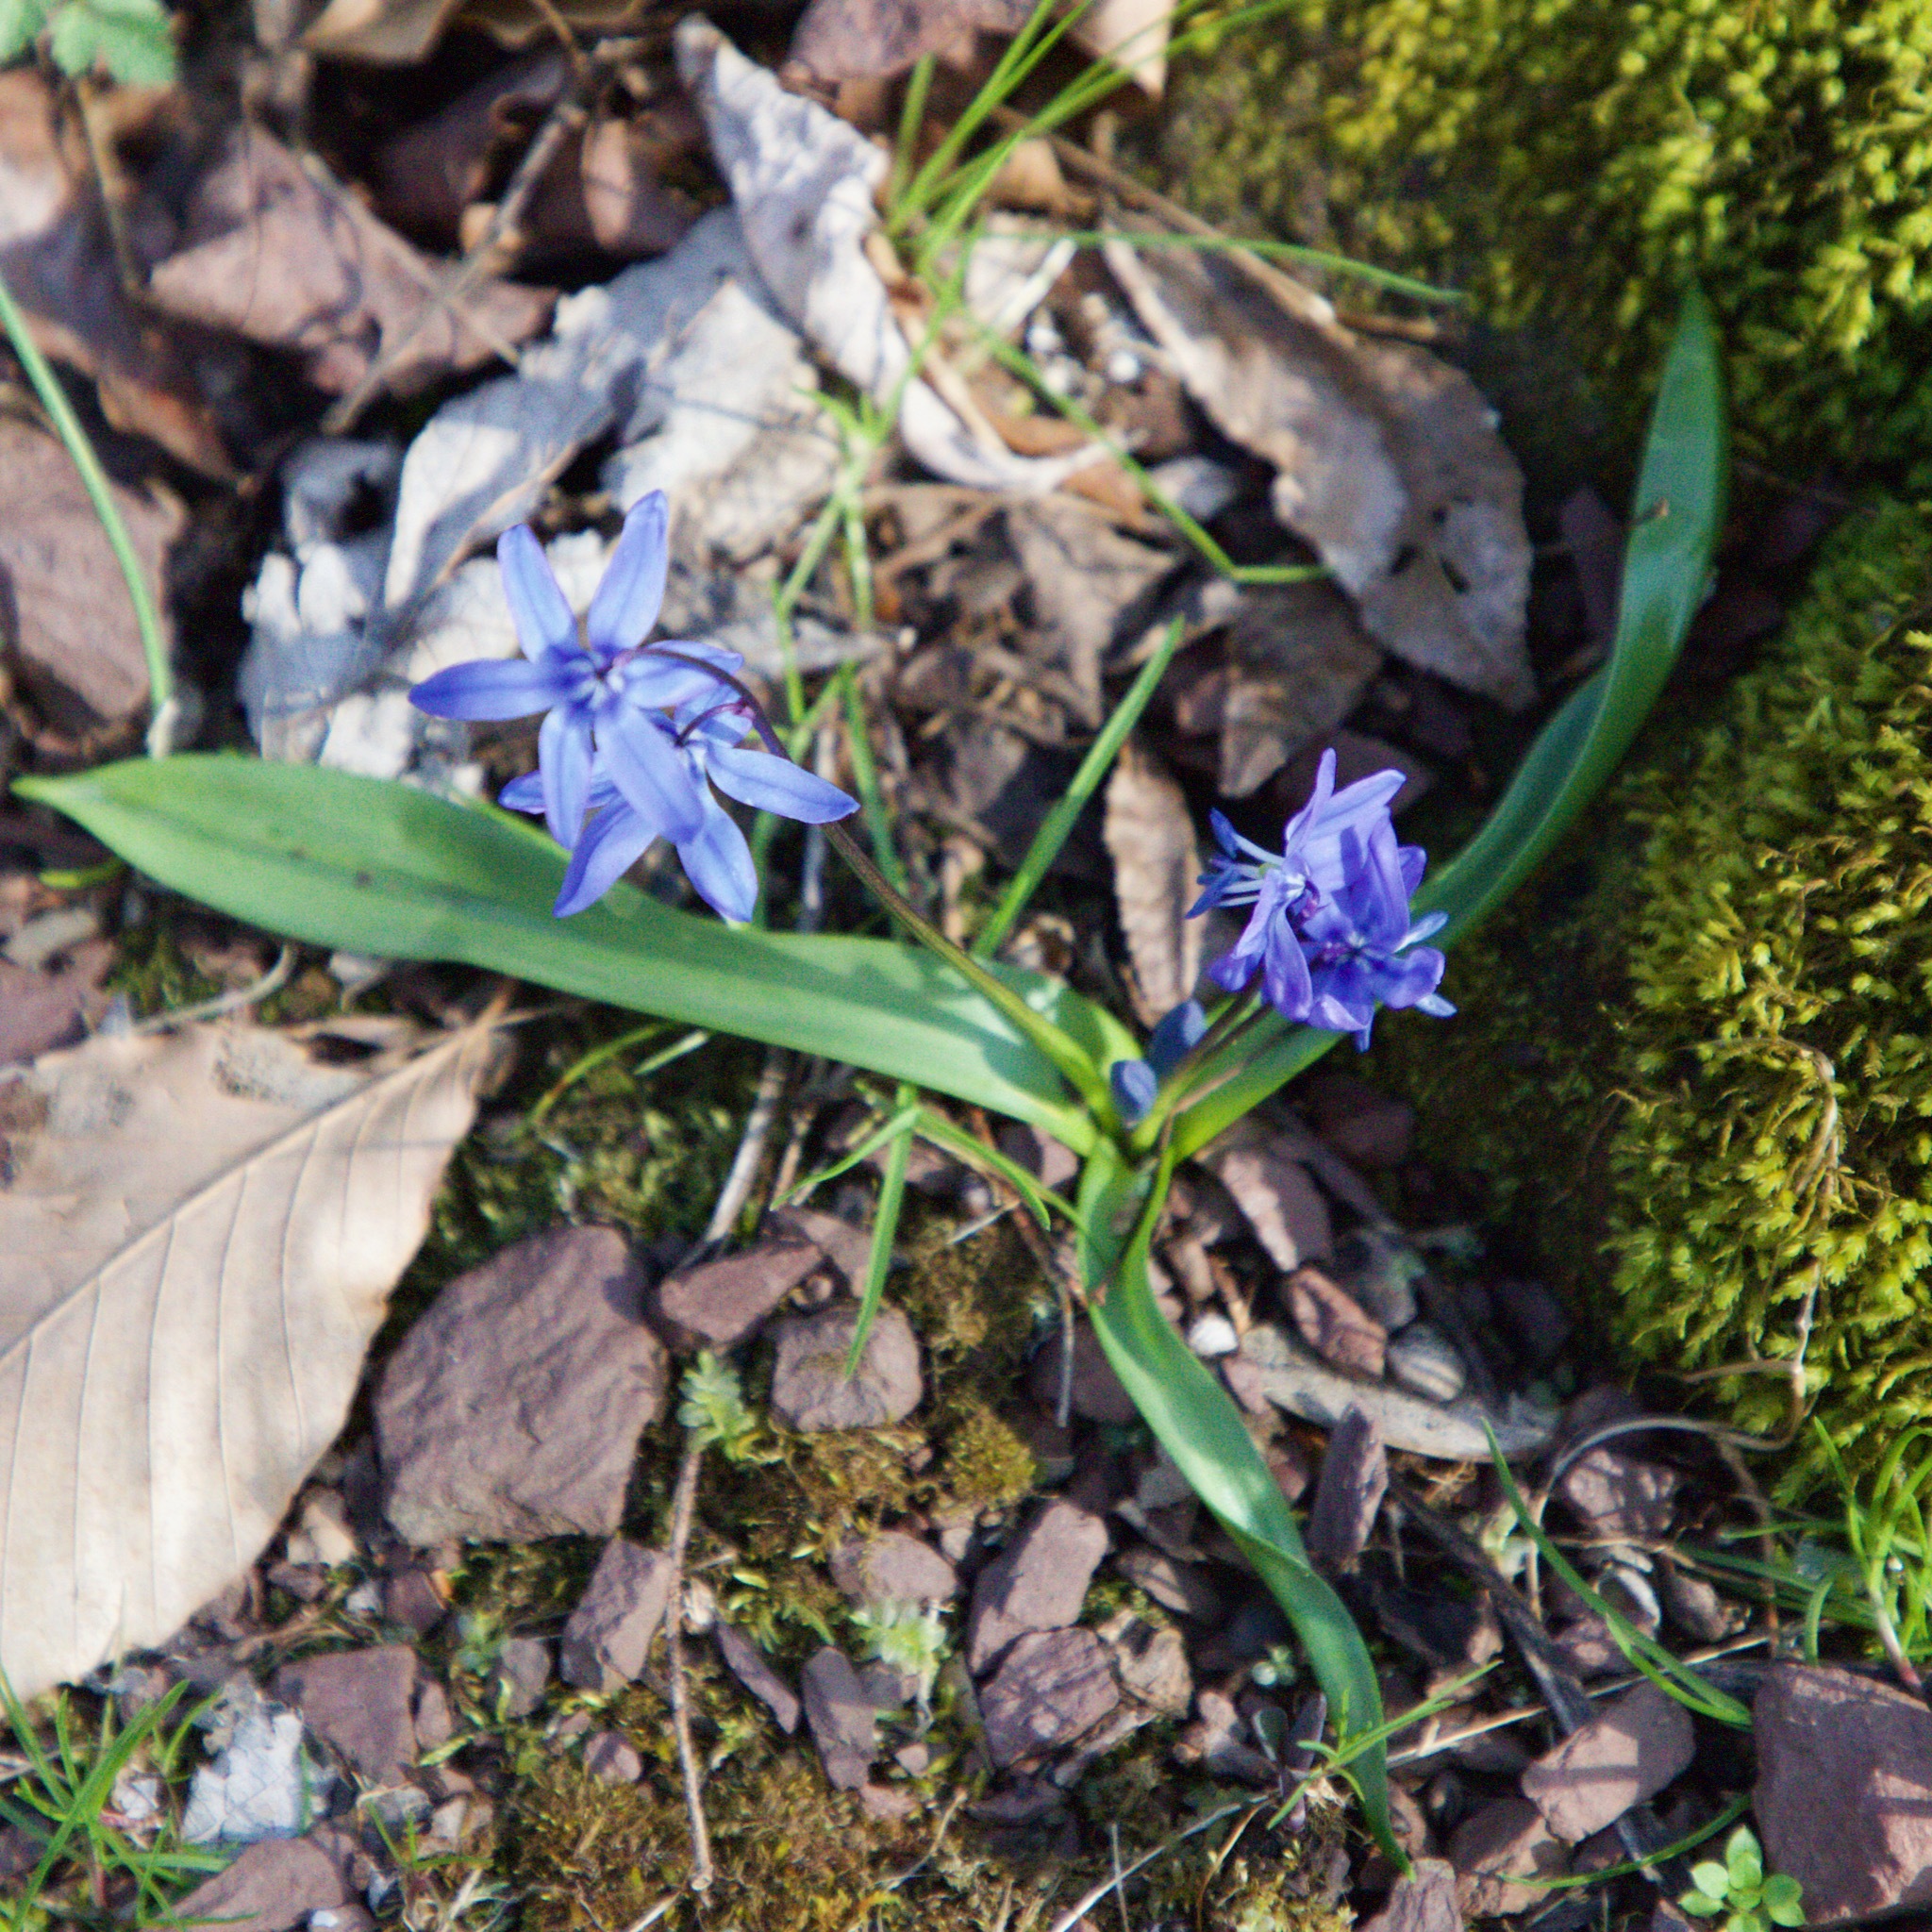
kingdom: Plantae
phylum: Tracheophyta
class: Liliopsida
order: Asparagales
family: Asparagaceae
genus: Scilla
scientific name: Scilla bifolia
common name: Alpine squill
